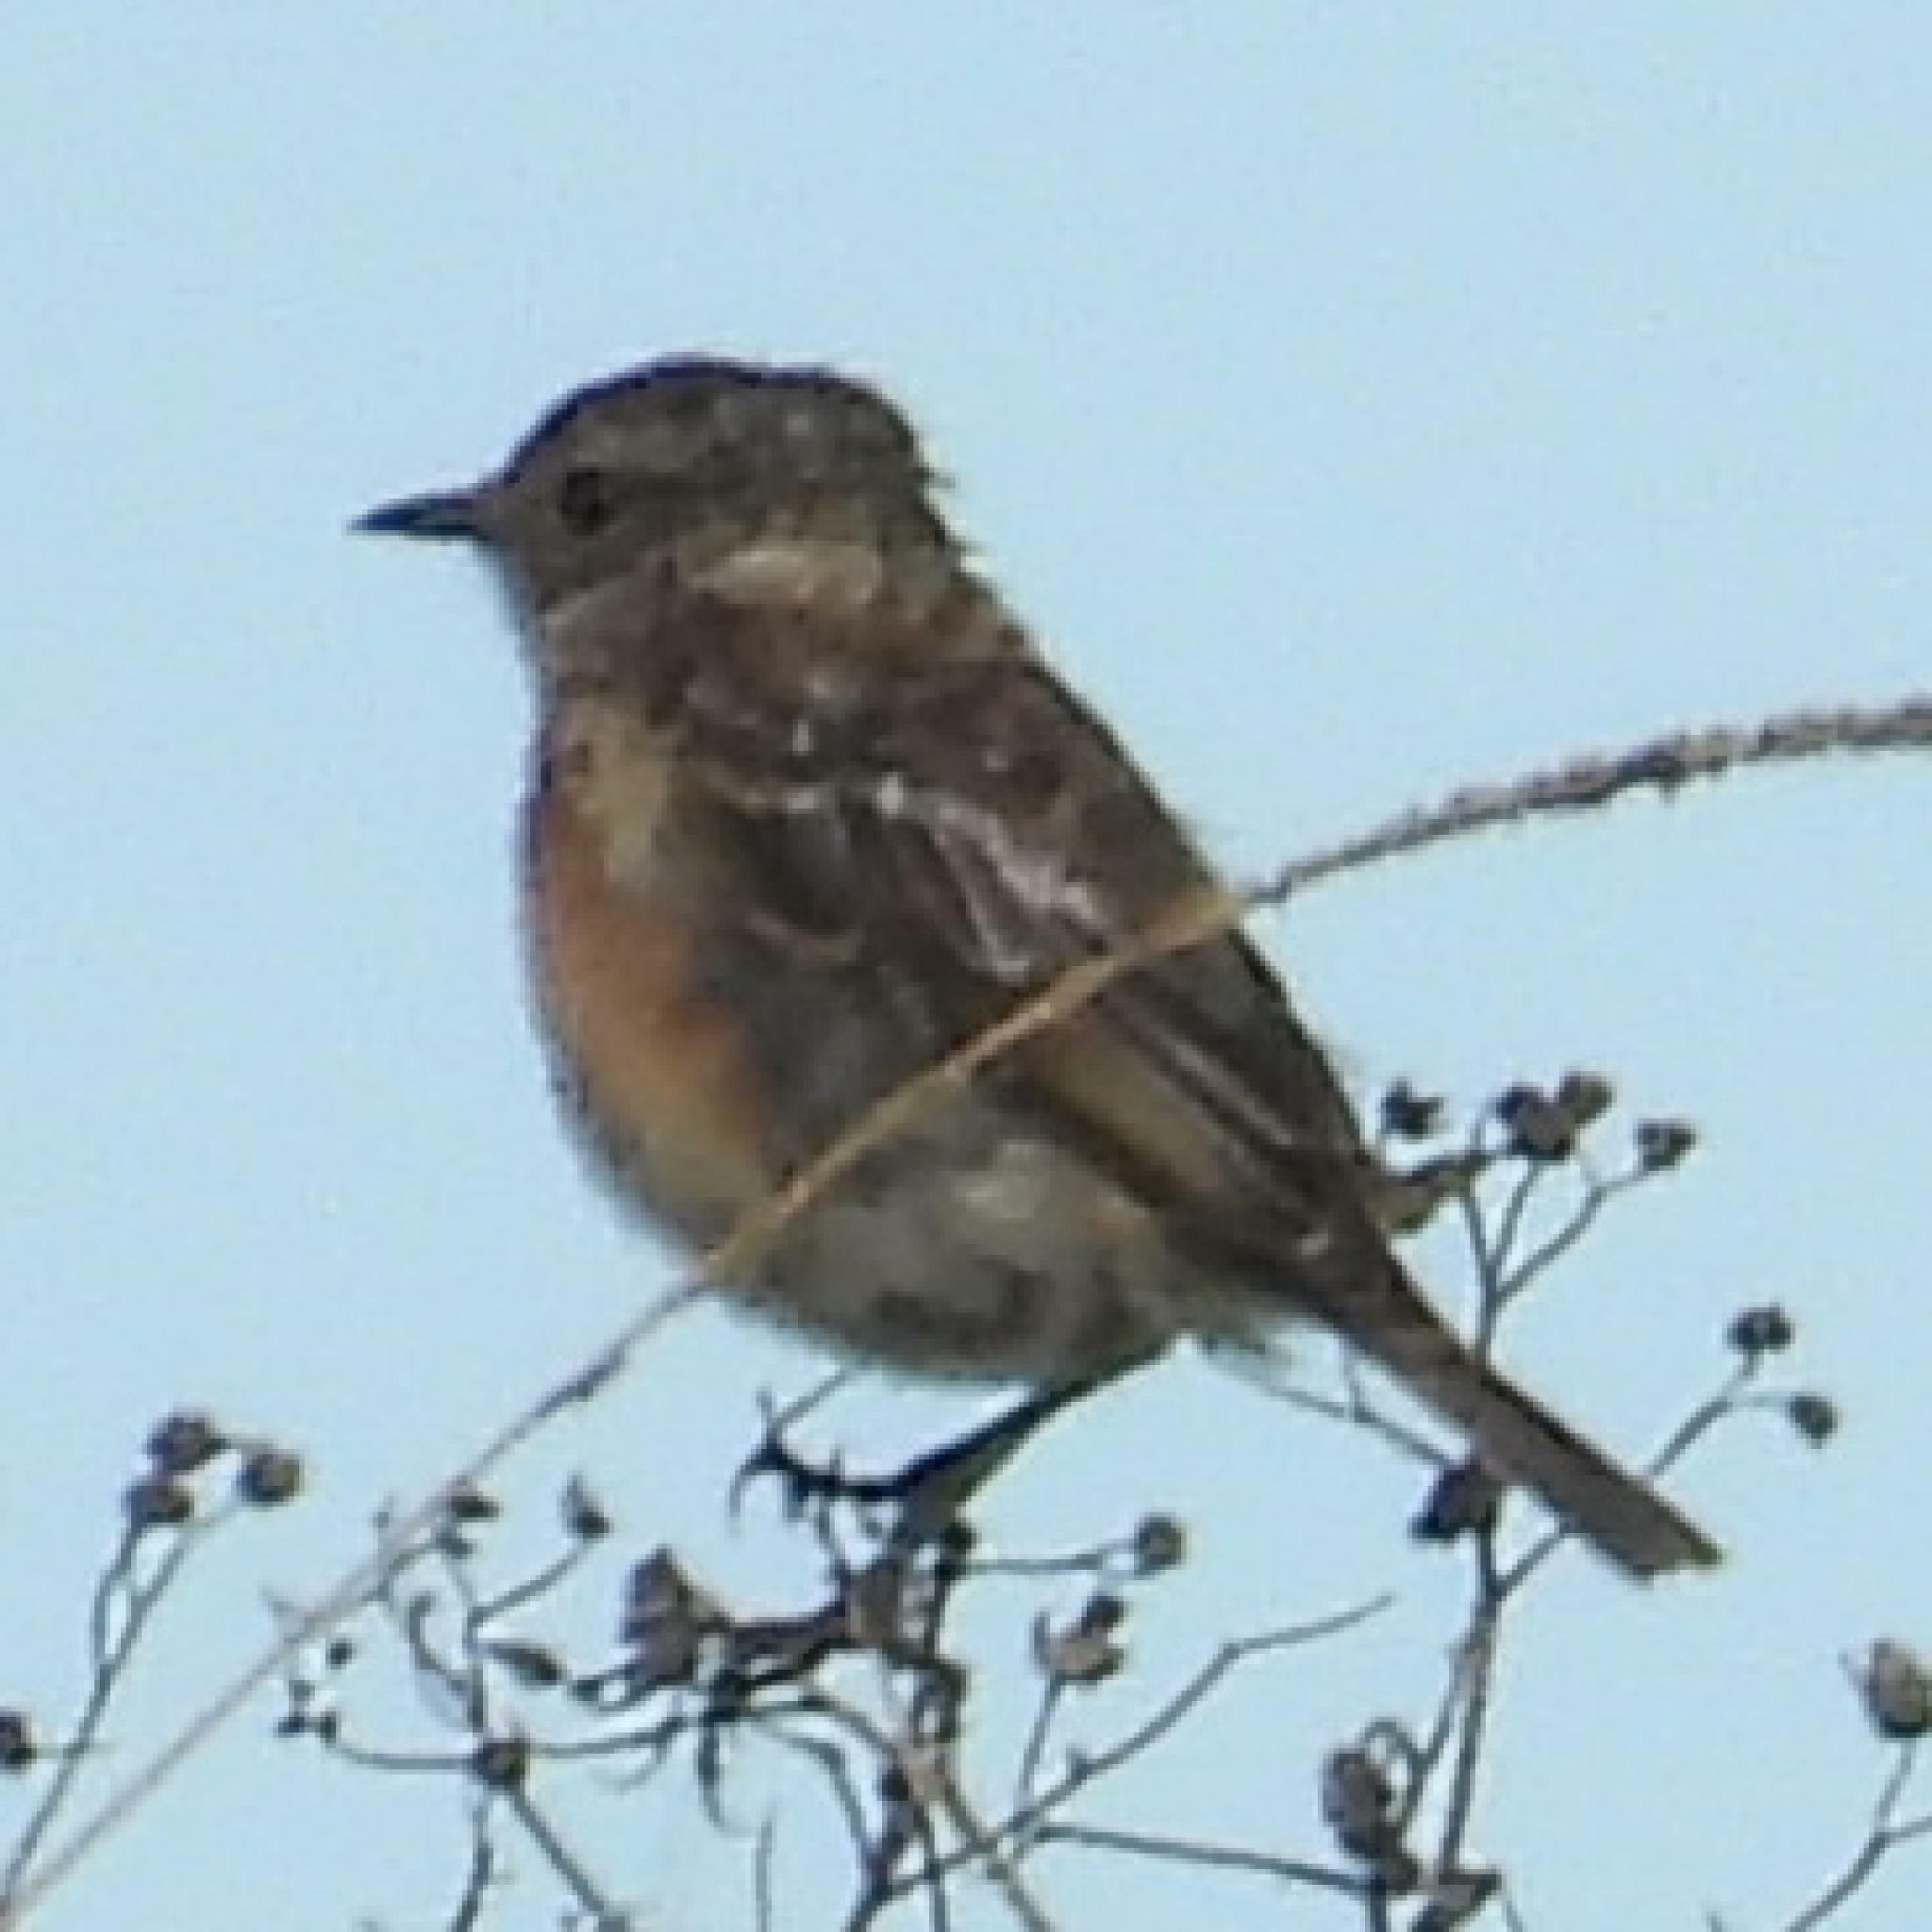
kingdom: Animalia
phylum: Chordata
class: Aves
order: Passeriformes
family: Muscicapidae
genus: Saxicola
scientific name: Saxicola torquatus
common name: African stonechat
